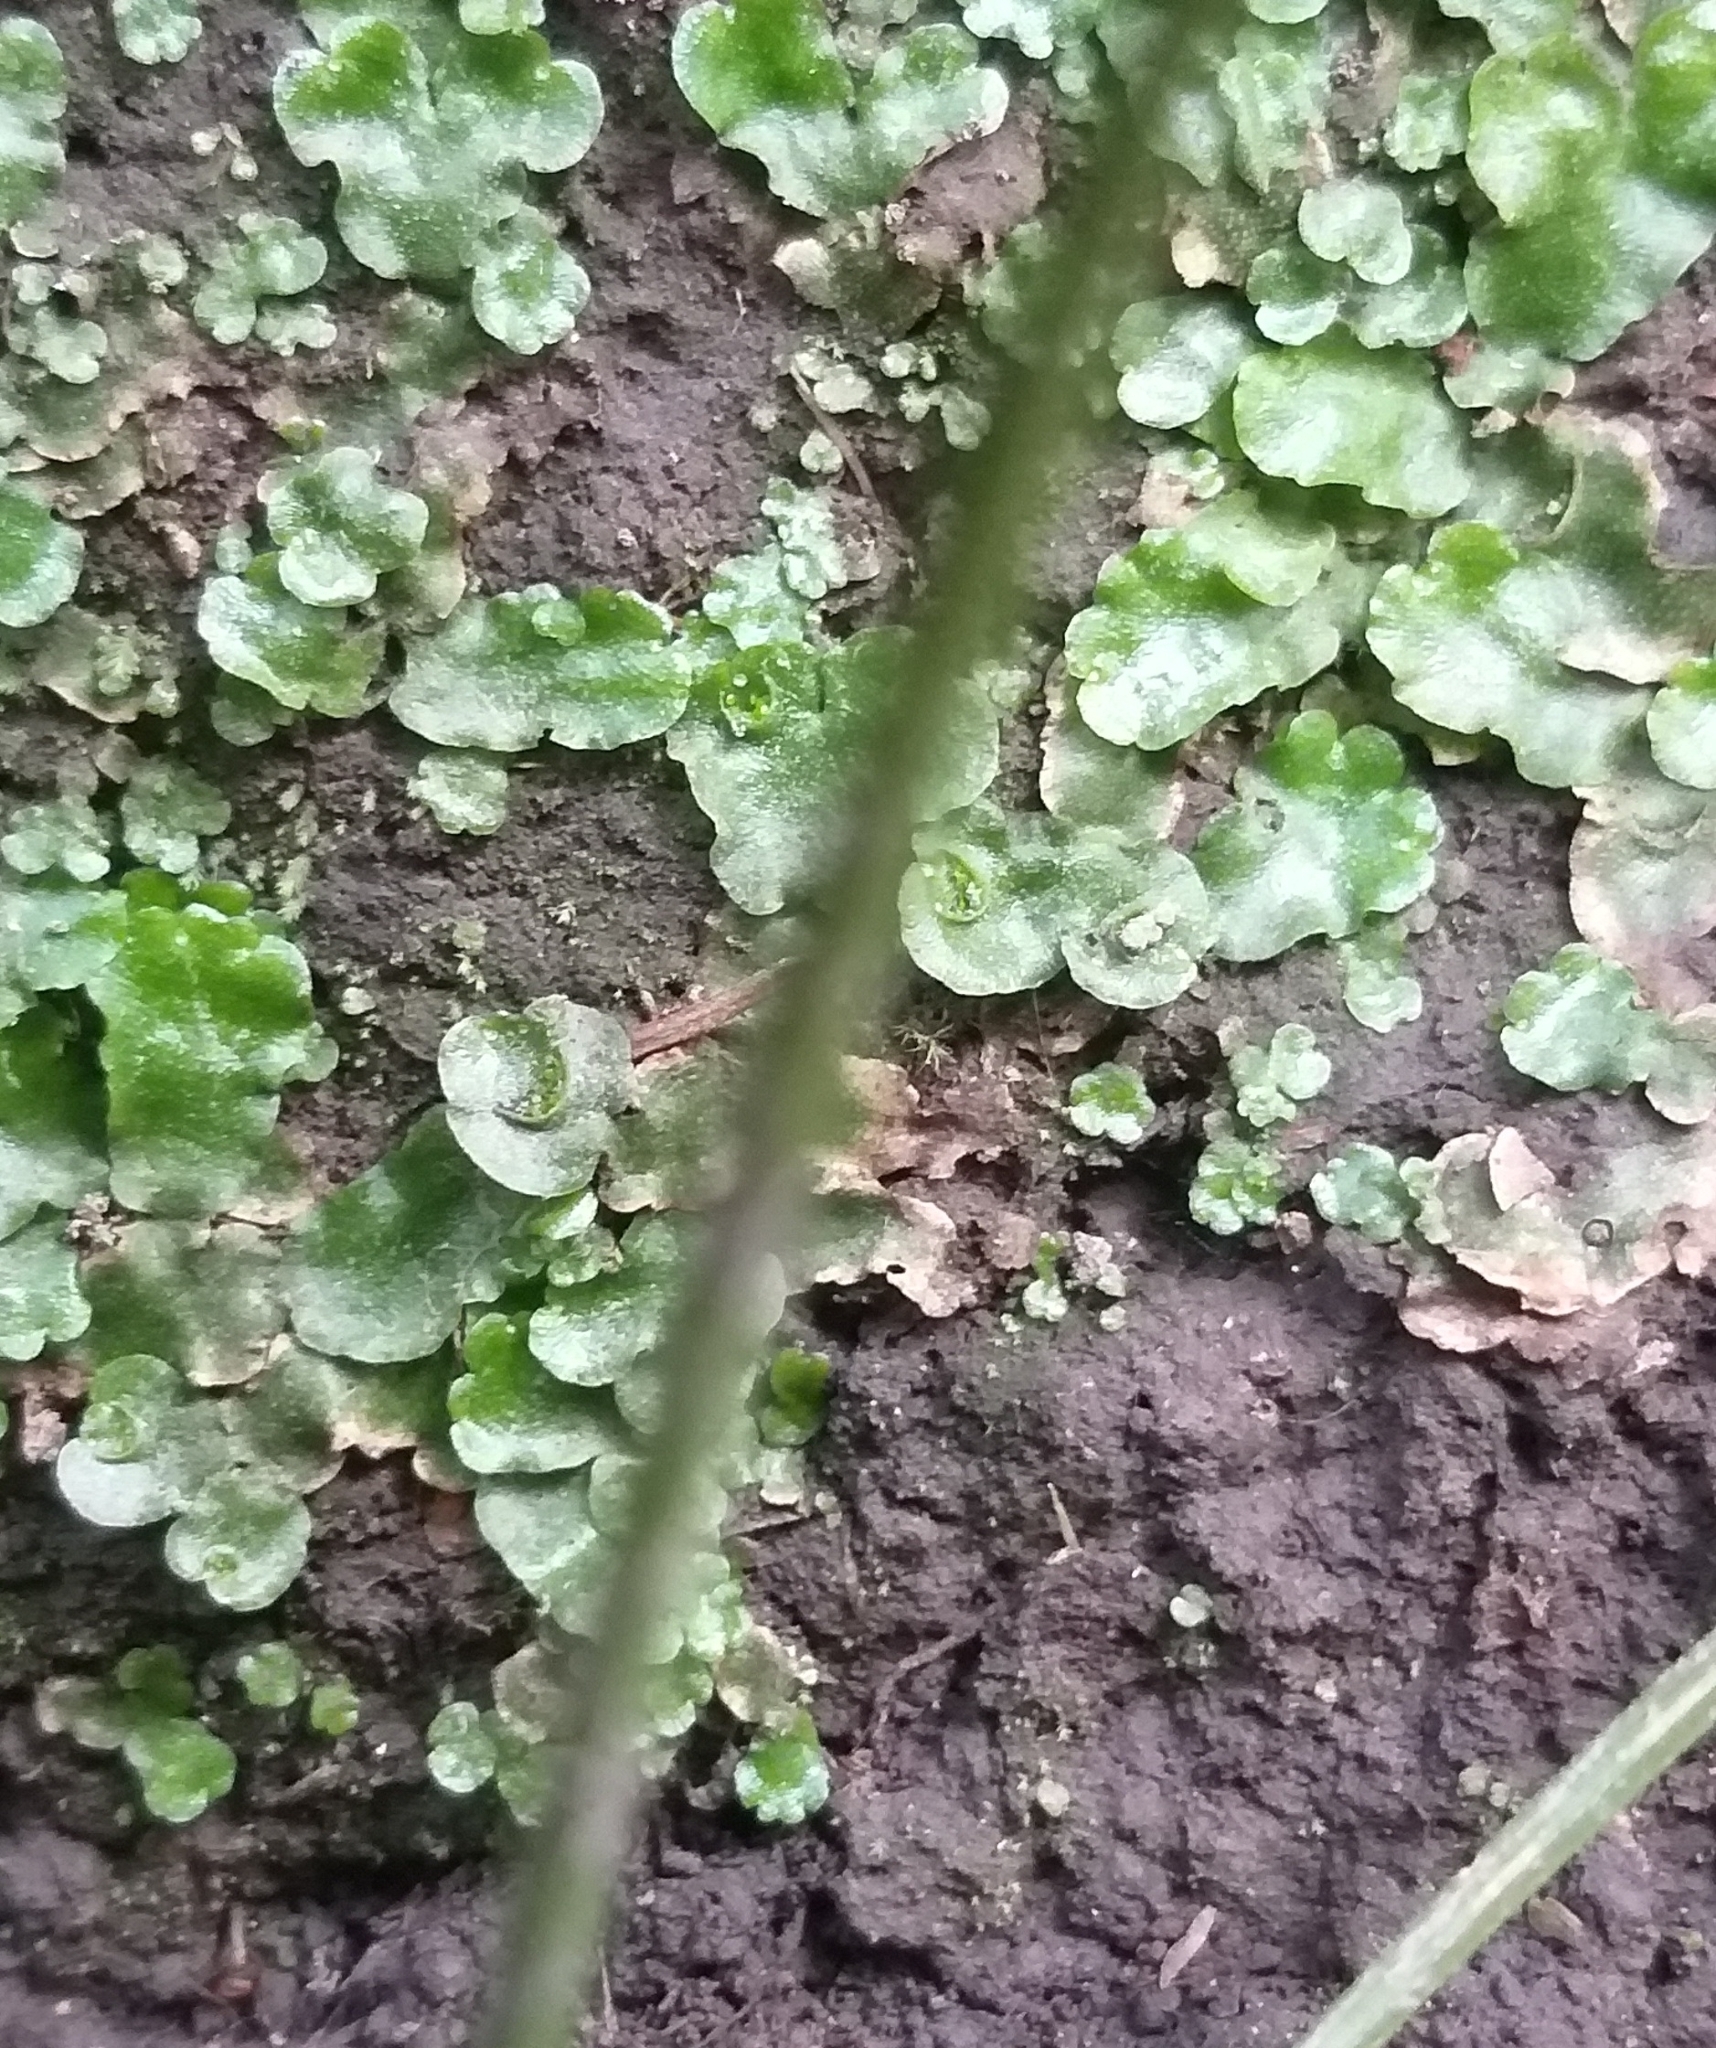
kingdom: Plantae
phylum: Marchantiophyta
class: Marchantiopsida
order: Lunulariales
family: Lunulariaceae
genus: Lunularia
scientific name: Lunularia cruciata
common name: Crescent-cup liverwort
